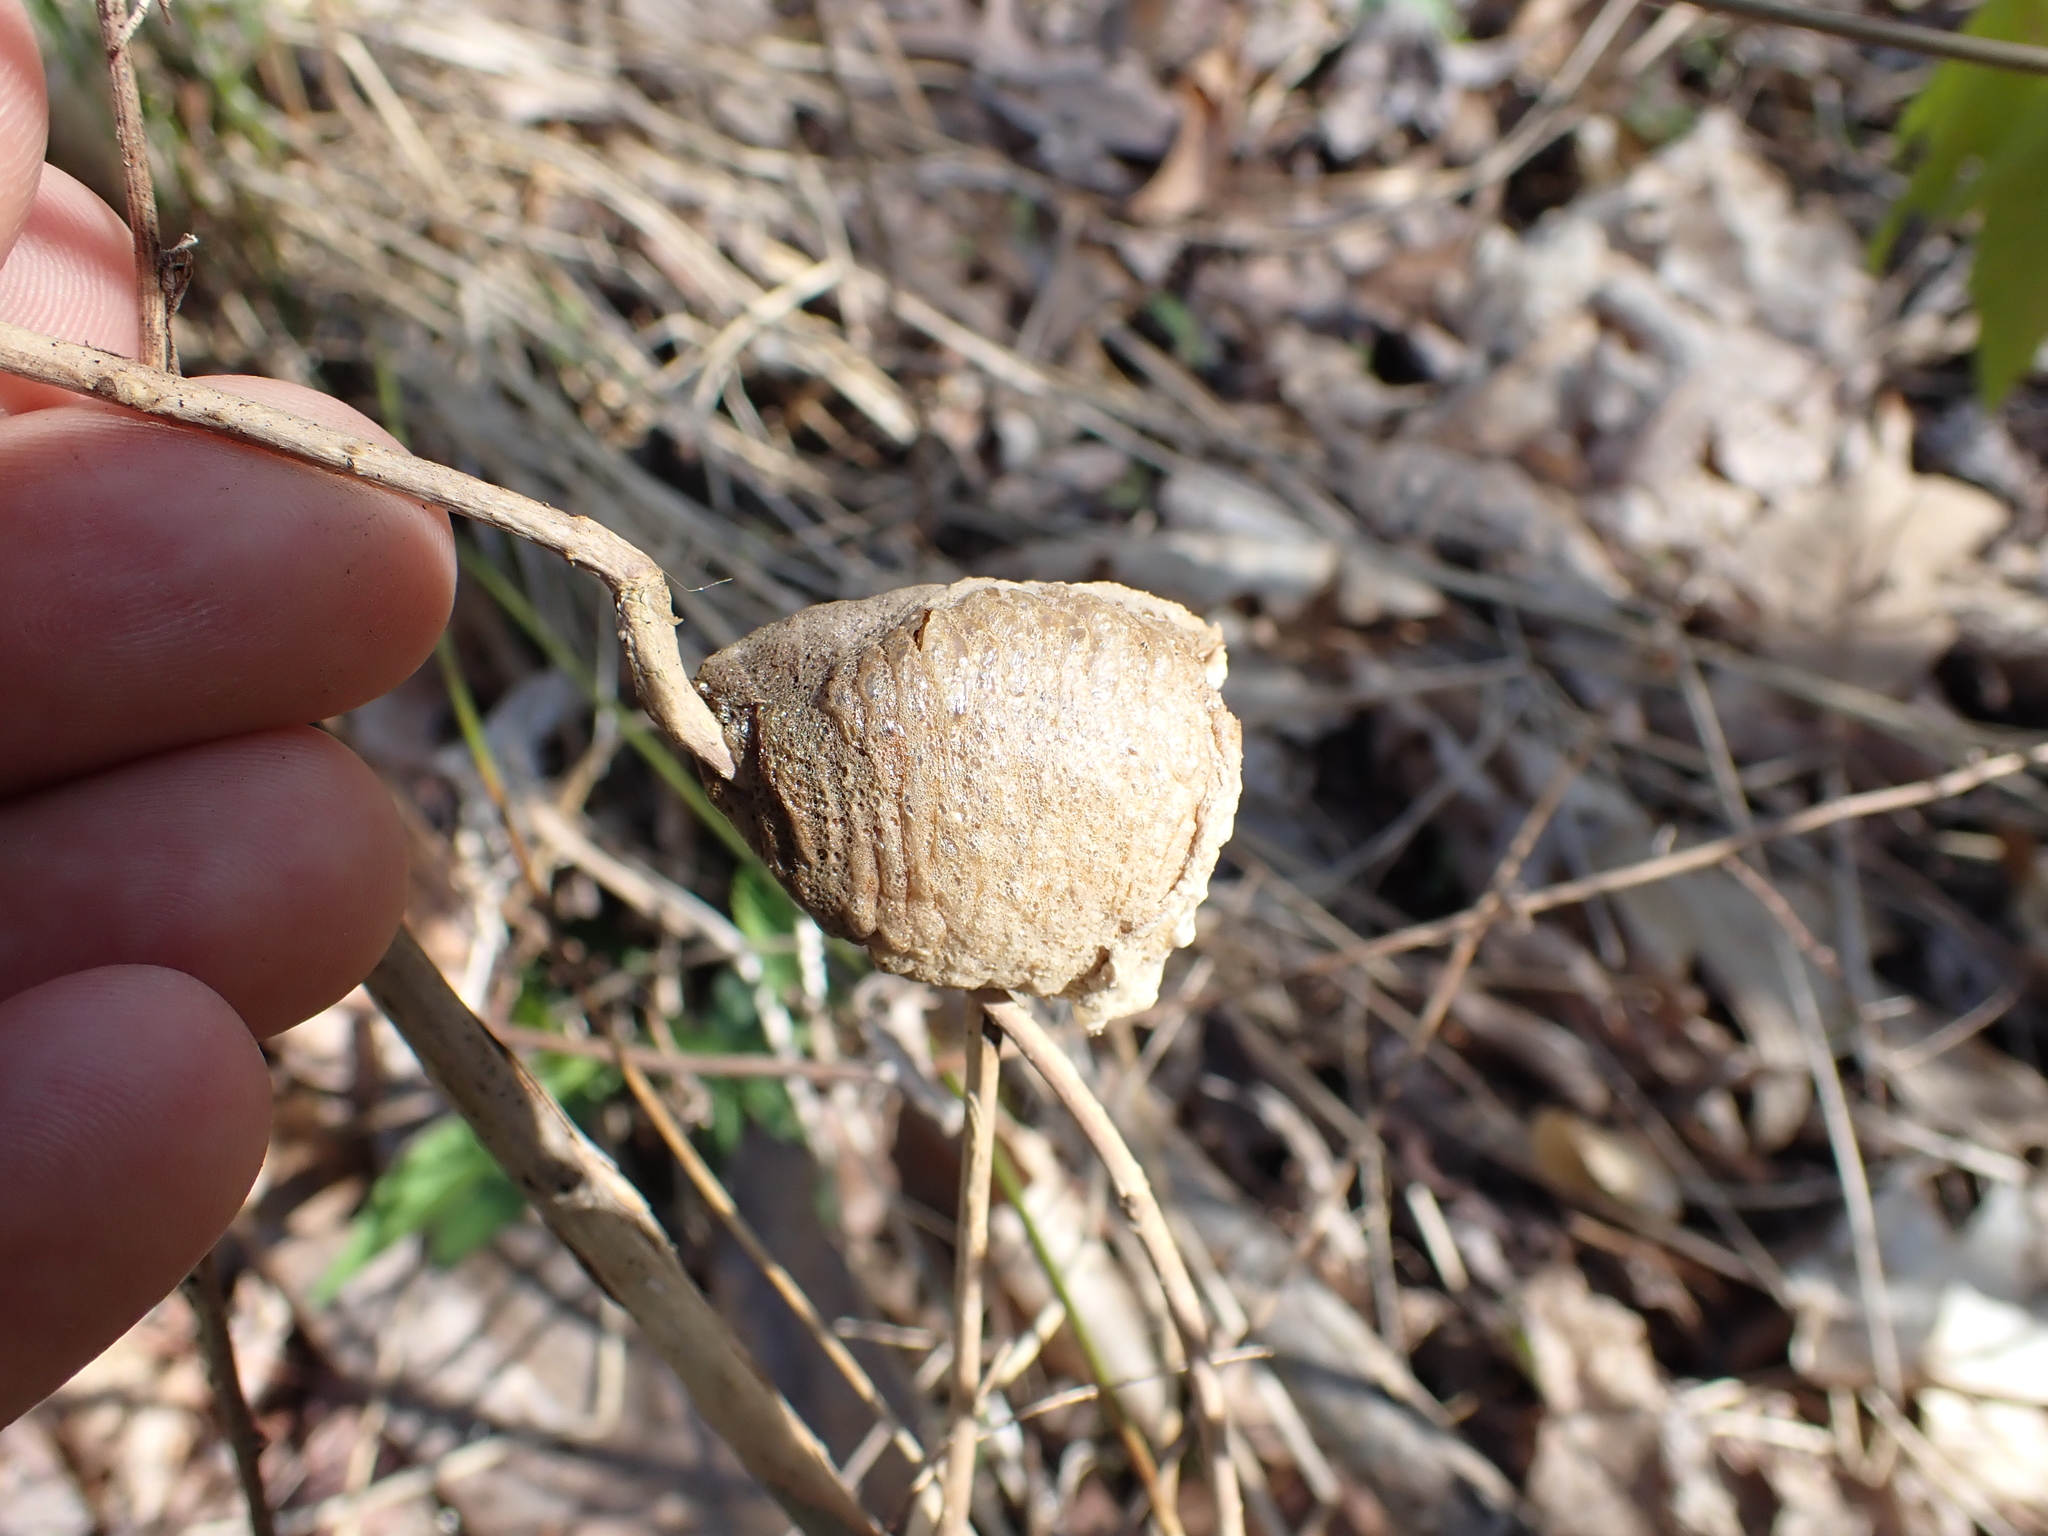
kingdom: Animalia
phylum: Arthropoda
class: Insecta
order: Mantodea
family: Mantidae
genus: Tenodera
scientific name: Tenodera sinensis
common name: Chinese mantis
